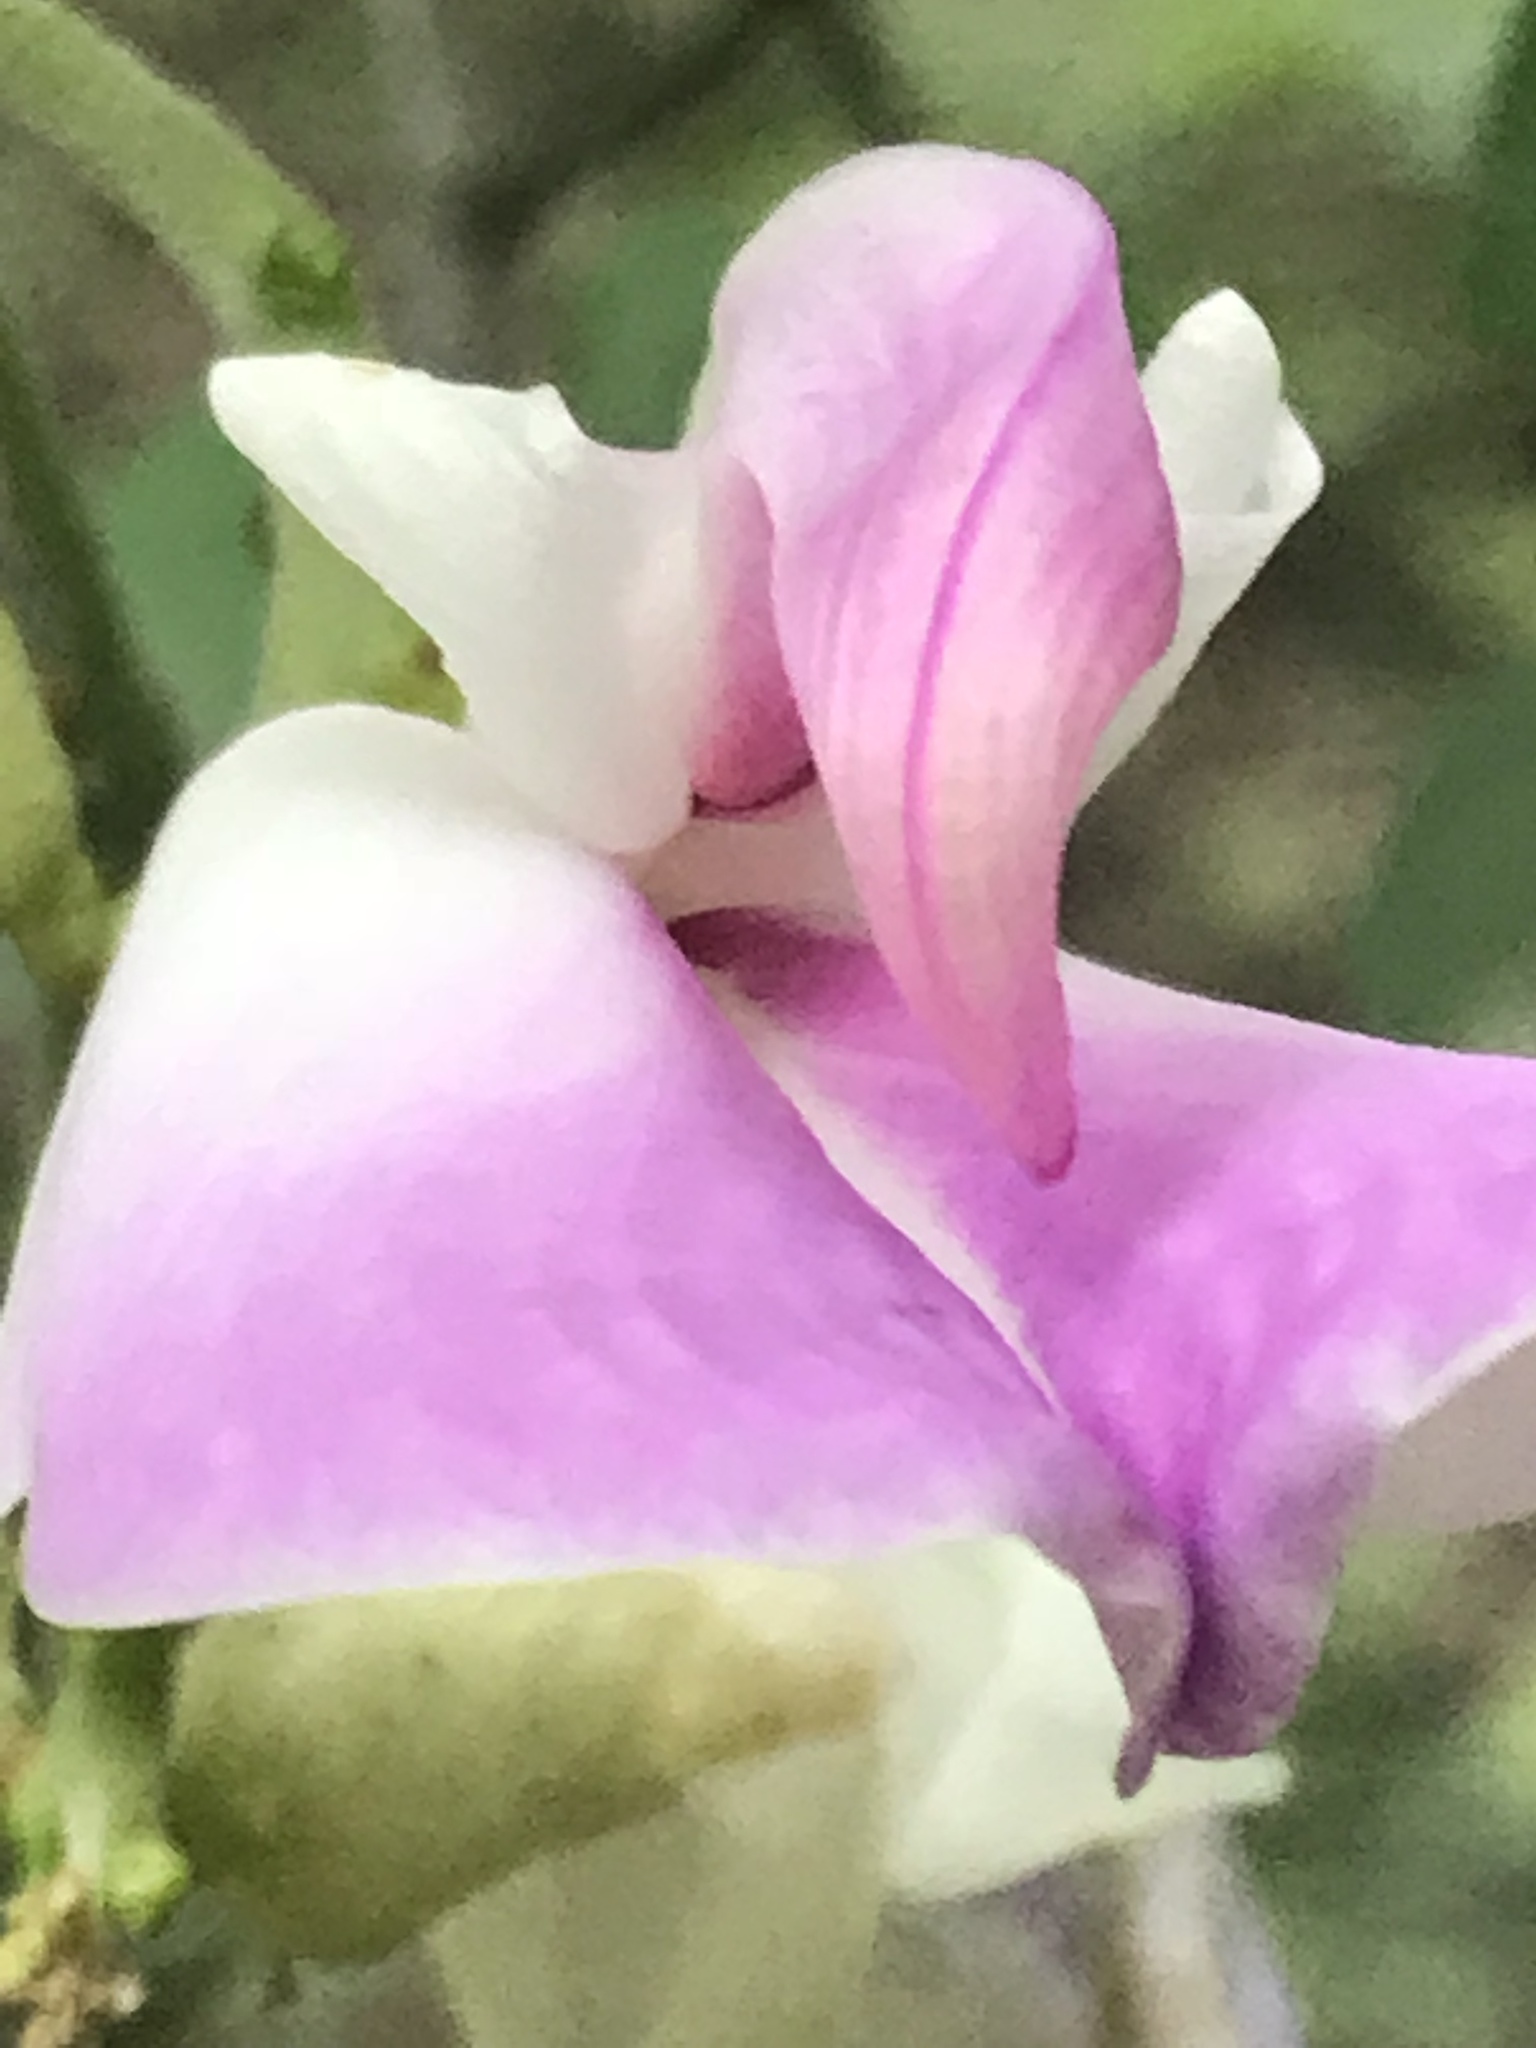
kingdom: Plantae
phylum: Tracheophyta
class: Magnoliopsida
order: Fabales
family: Fabaceae
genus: Canavalia
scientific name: Canavalia septentrionalis
